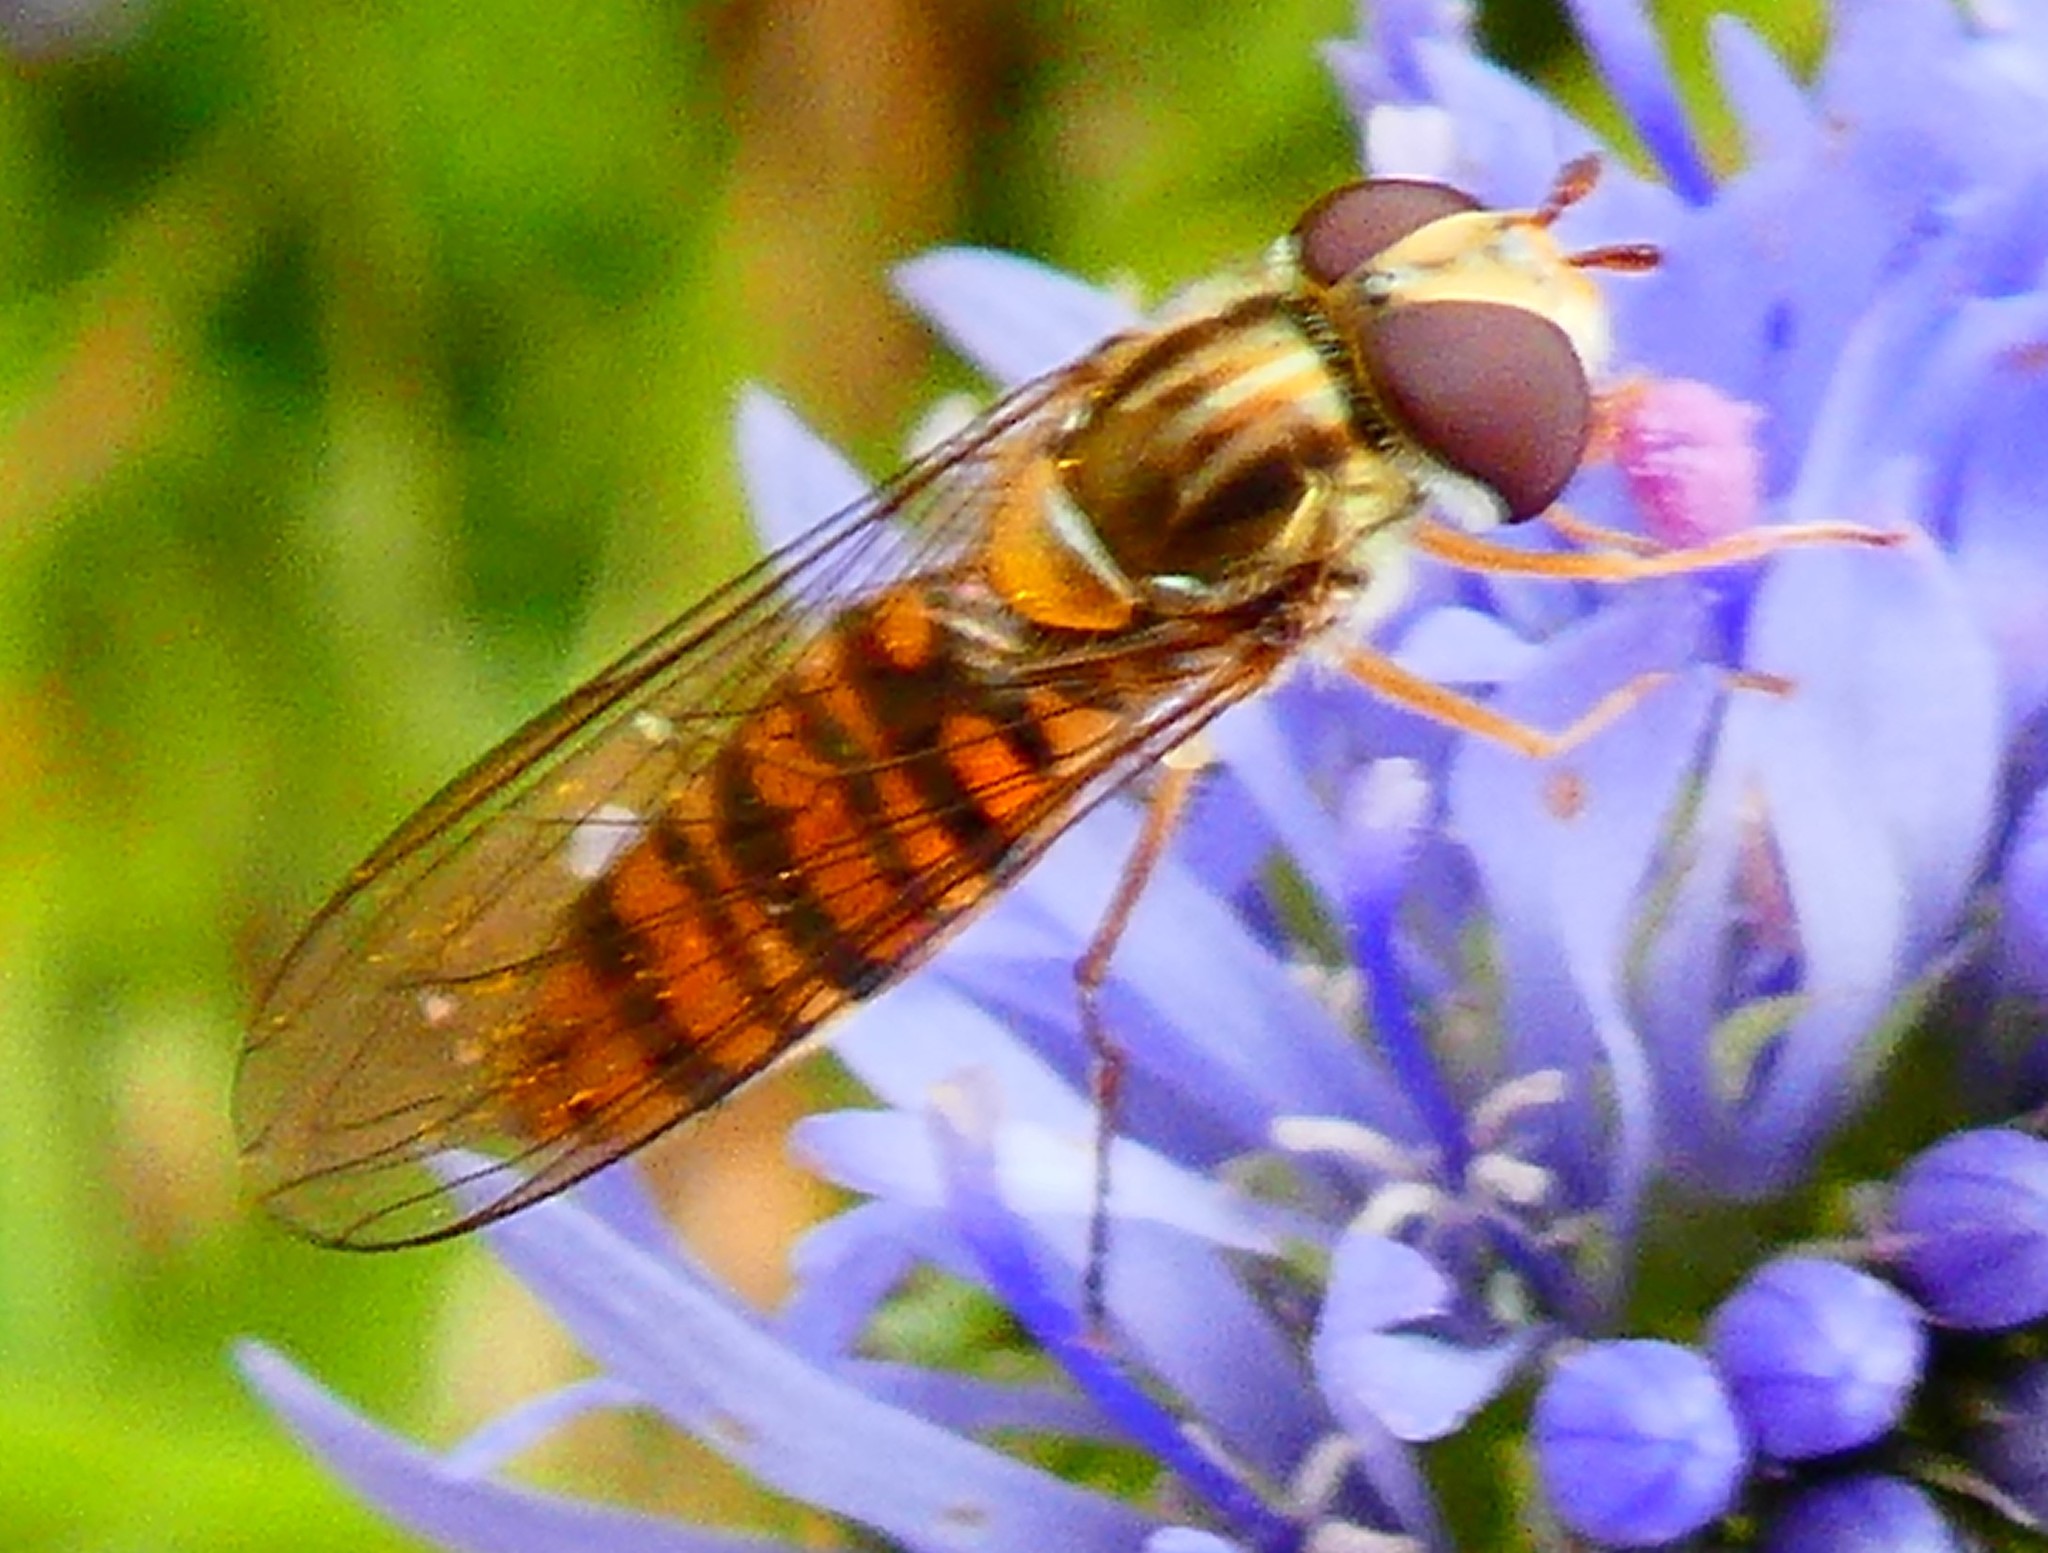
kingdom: Animalia
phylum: Arthropoda
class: Insecta
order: Diptera
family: Syrphidae
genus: Episyrphus
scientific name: Episyrphus balteatus
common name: Marmalade hoverfly
